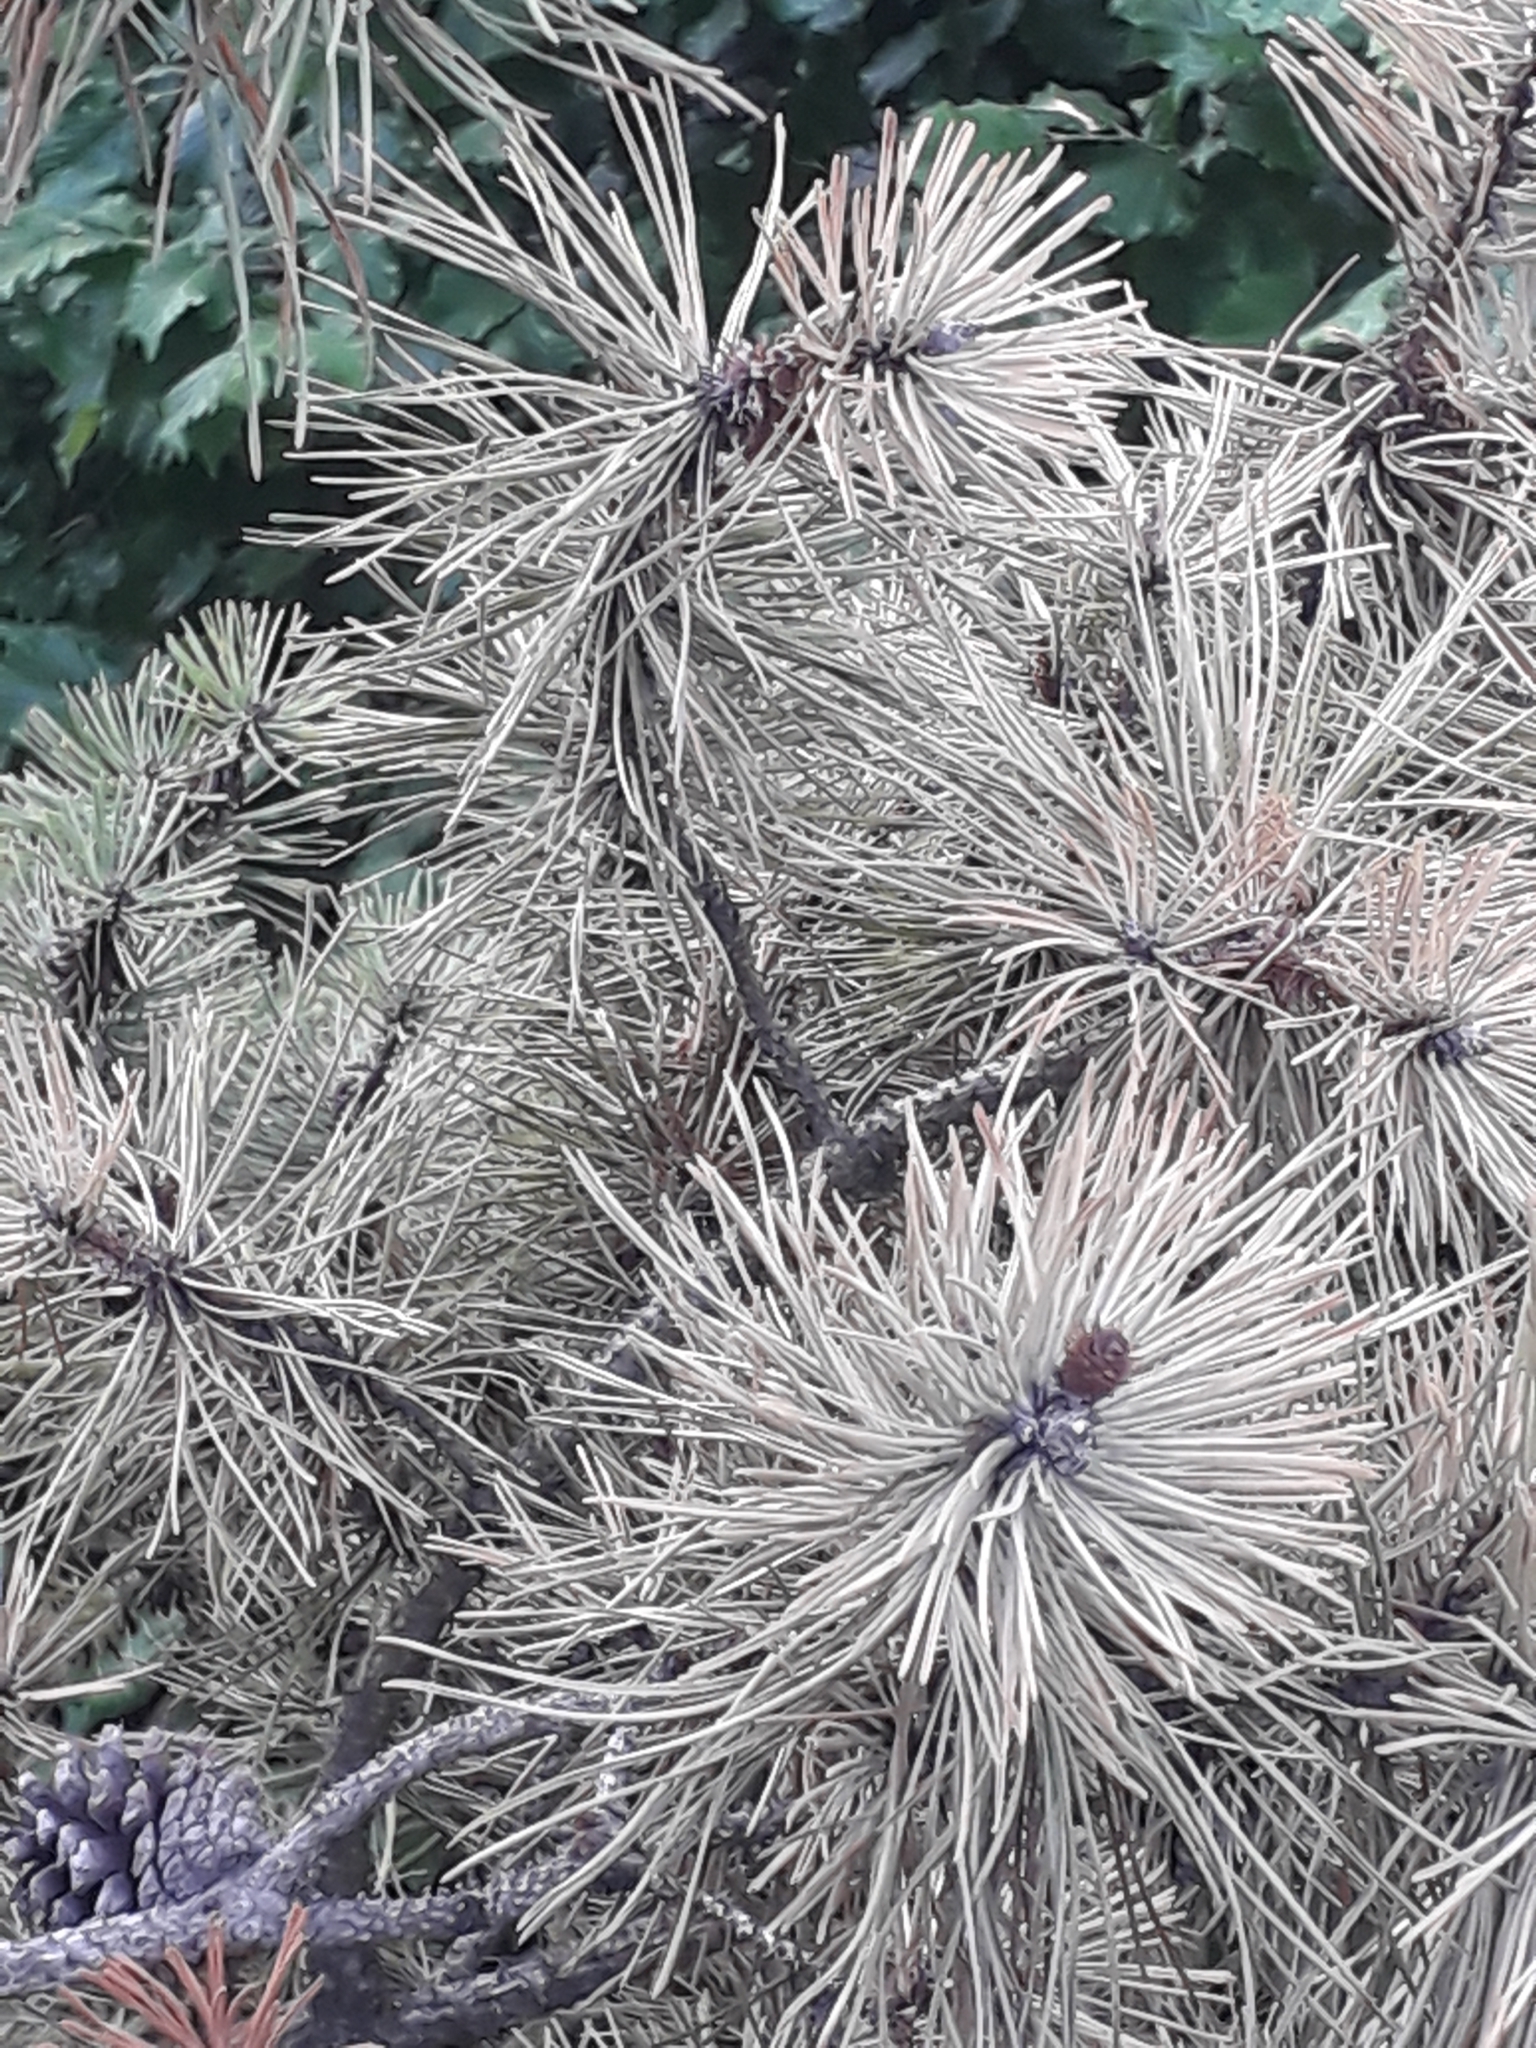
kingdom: Plantae
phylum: Tracheophyta
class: Pinopsida
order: Pinales
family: Pinaceae
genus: Pinus
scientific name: Pinus sylvestris
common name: Scots pine
